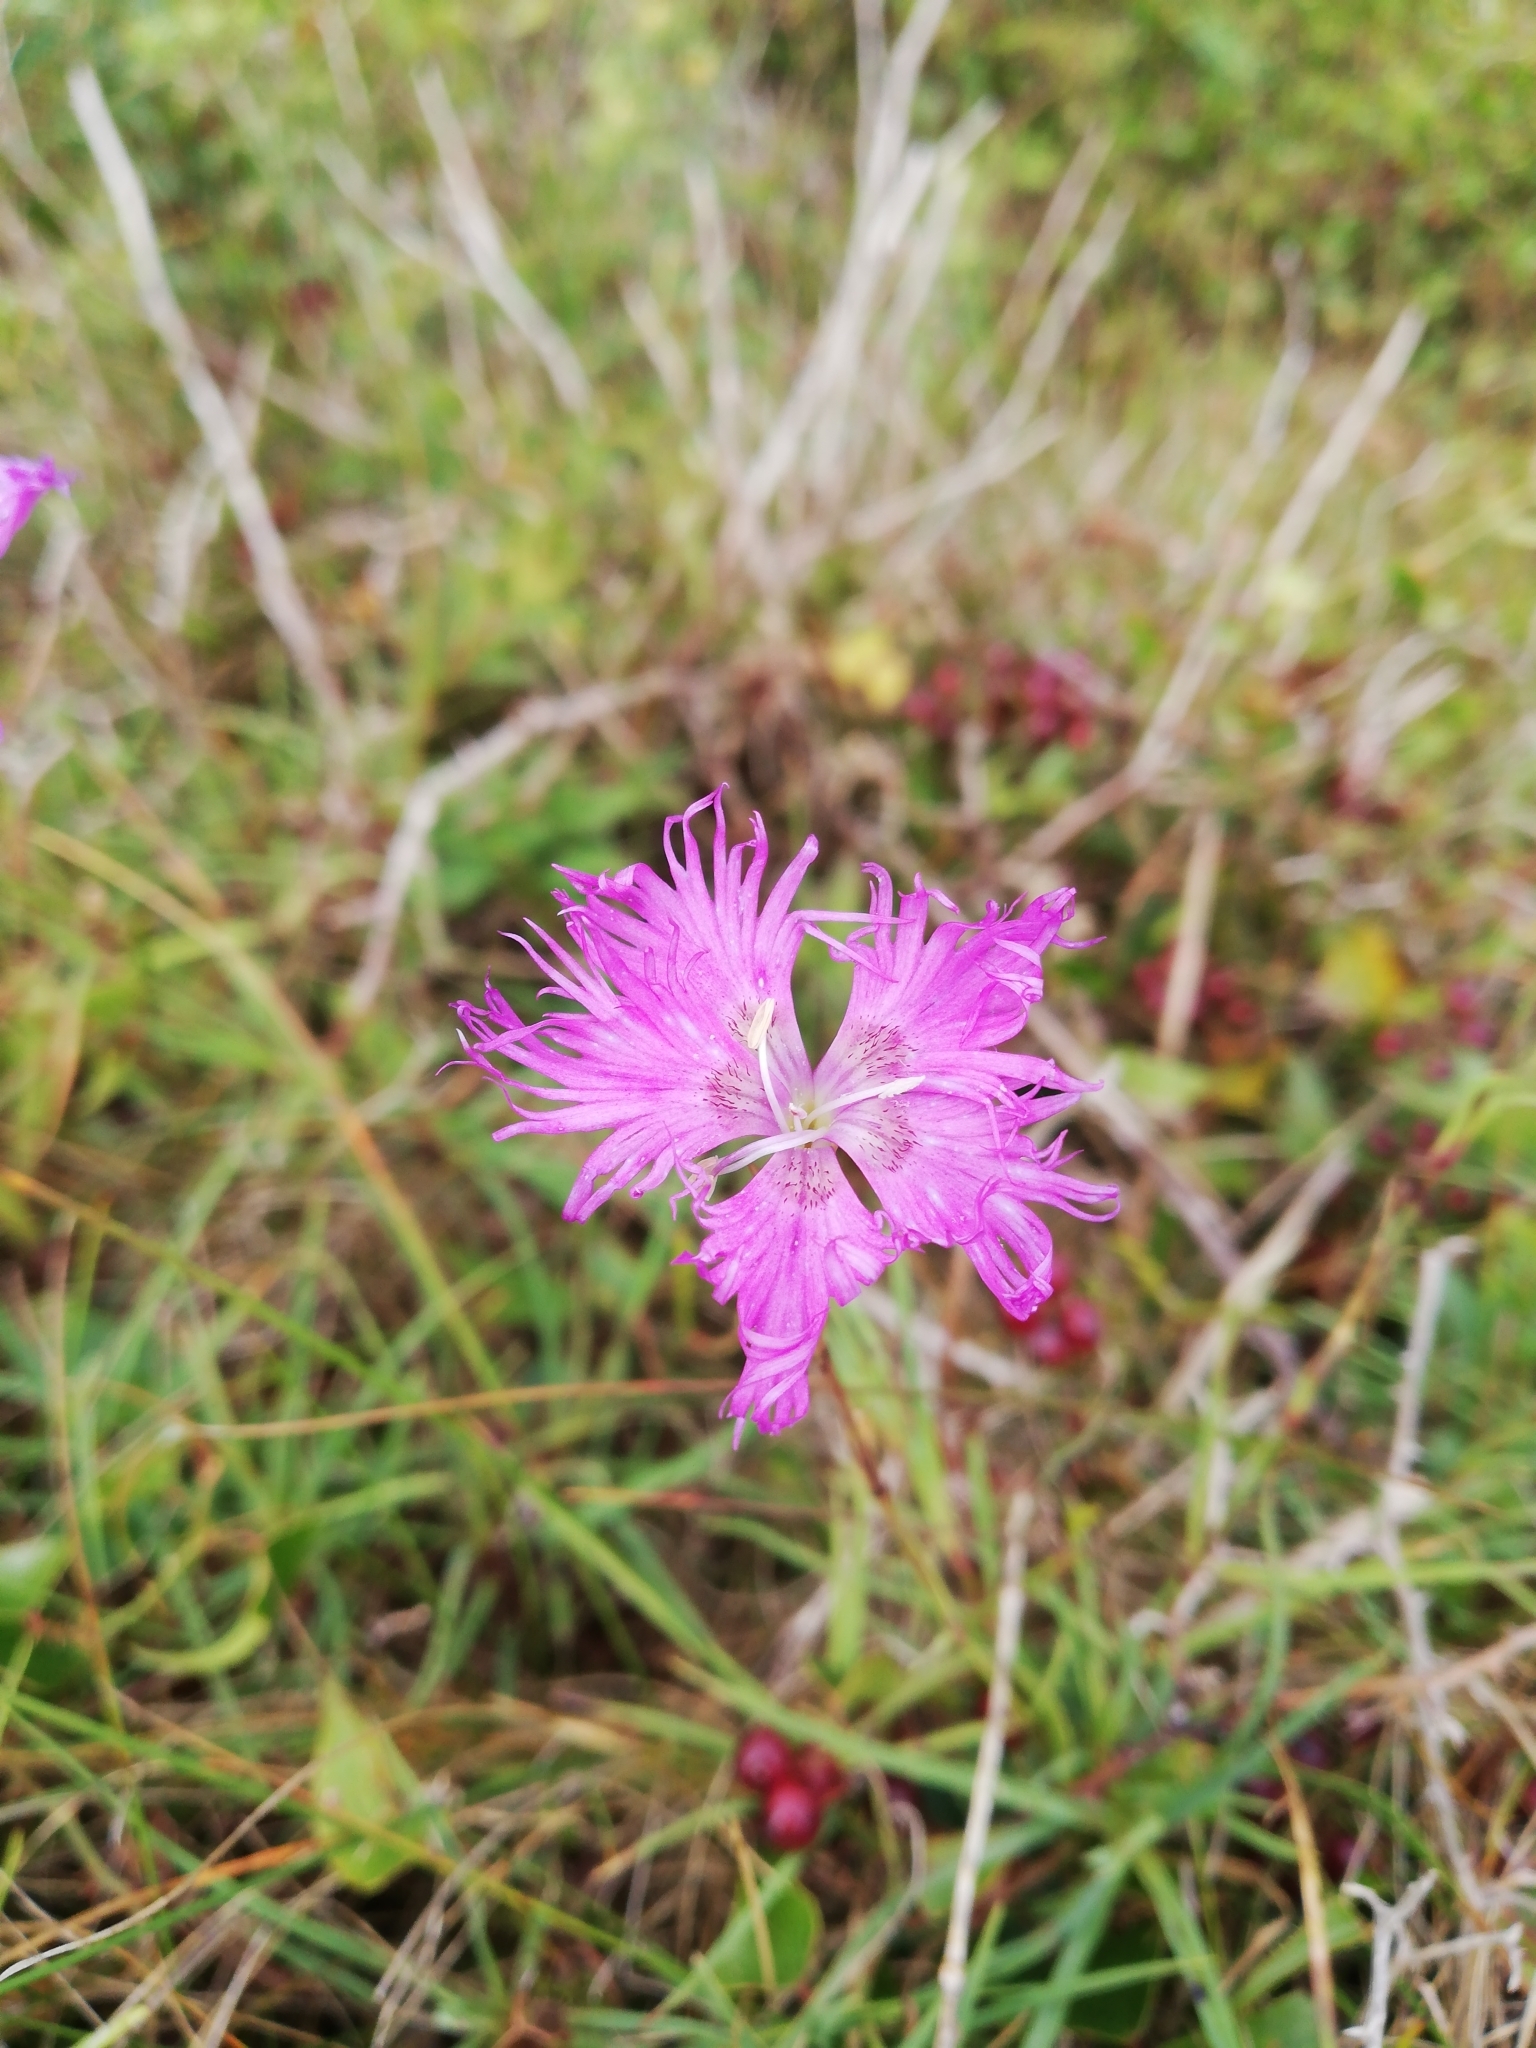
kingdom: Plantae
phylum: Tracheophyta
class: Magnoliopsida
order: Caryophyllales
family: Caryophyllaceae
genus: Dianthus
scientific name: Dianthus gallicus
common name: Jersey pink
